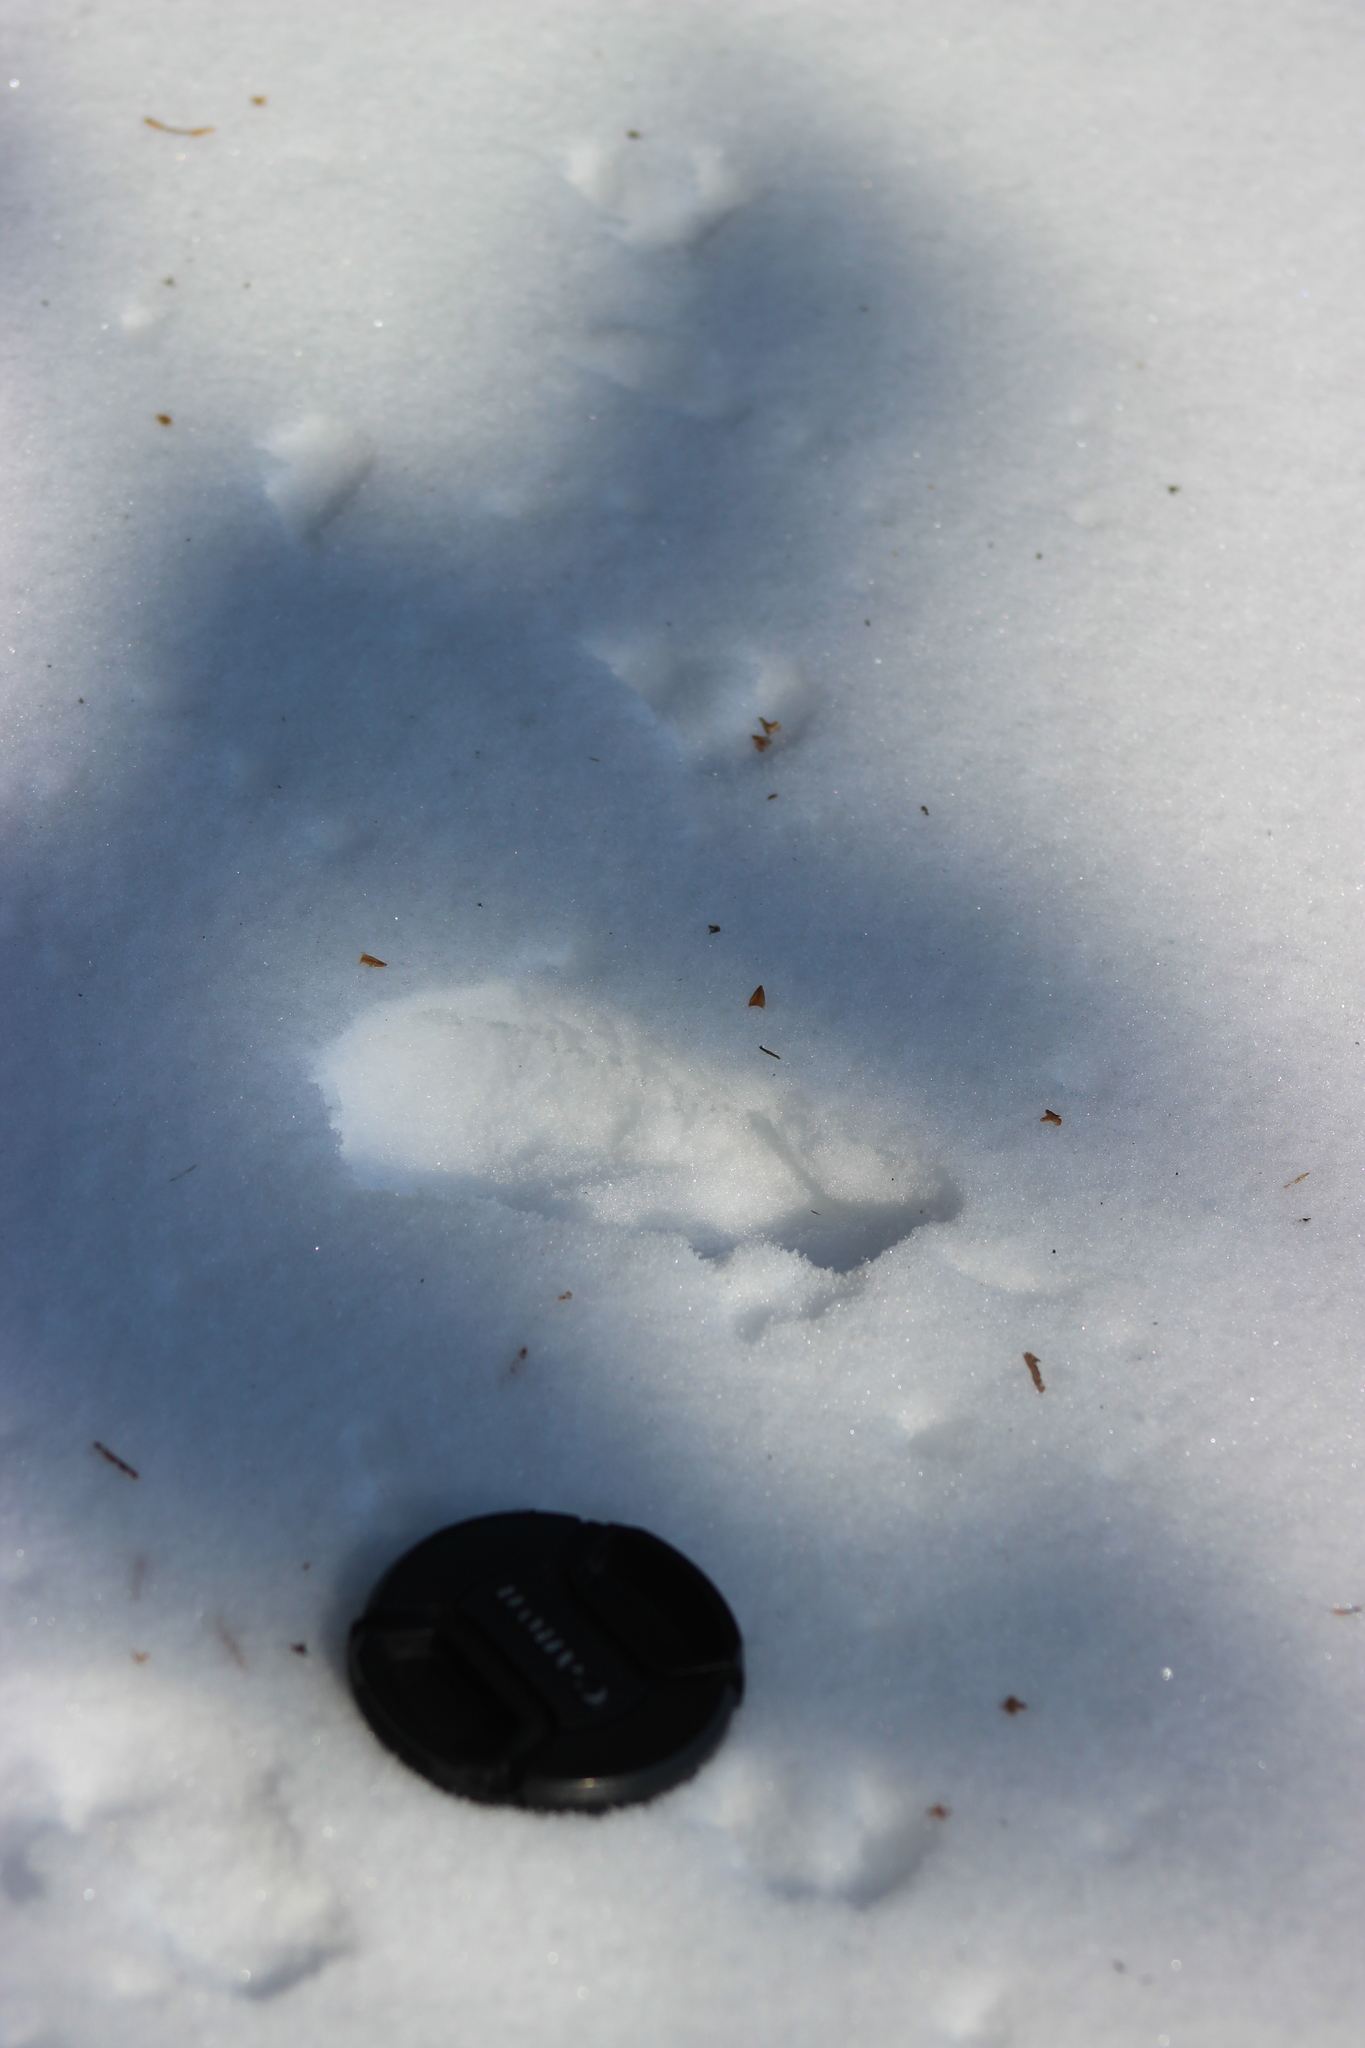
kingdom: Animalia
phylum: Chordata
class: Mammalia
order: Rodentia
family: Sciuridae
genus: Tamias
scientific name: Tamias sibiricus
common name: Siberian chipmunk
